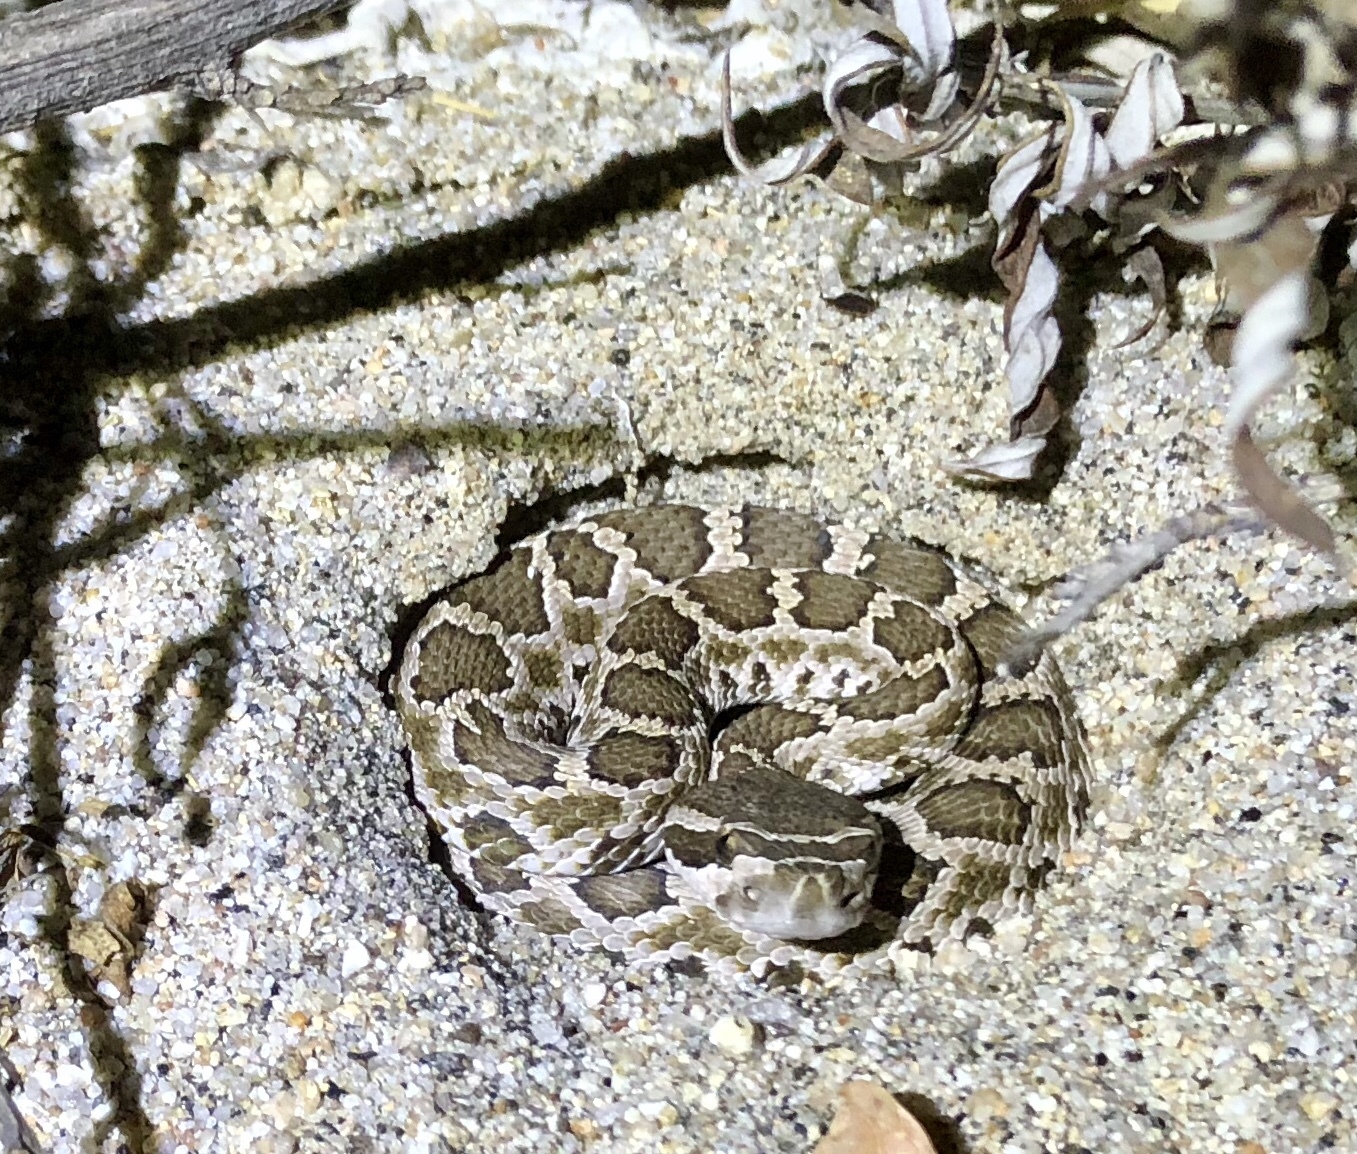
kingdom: Animalia
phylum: Chordata
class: Squamata
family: Viperidae
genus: Crotalus
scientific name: Crotalus oreganus
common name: Abyssus
